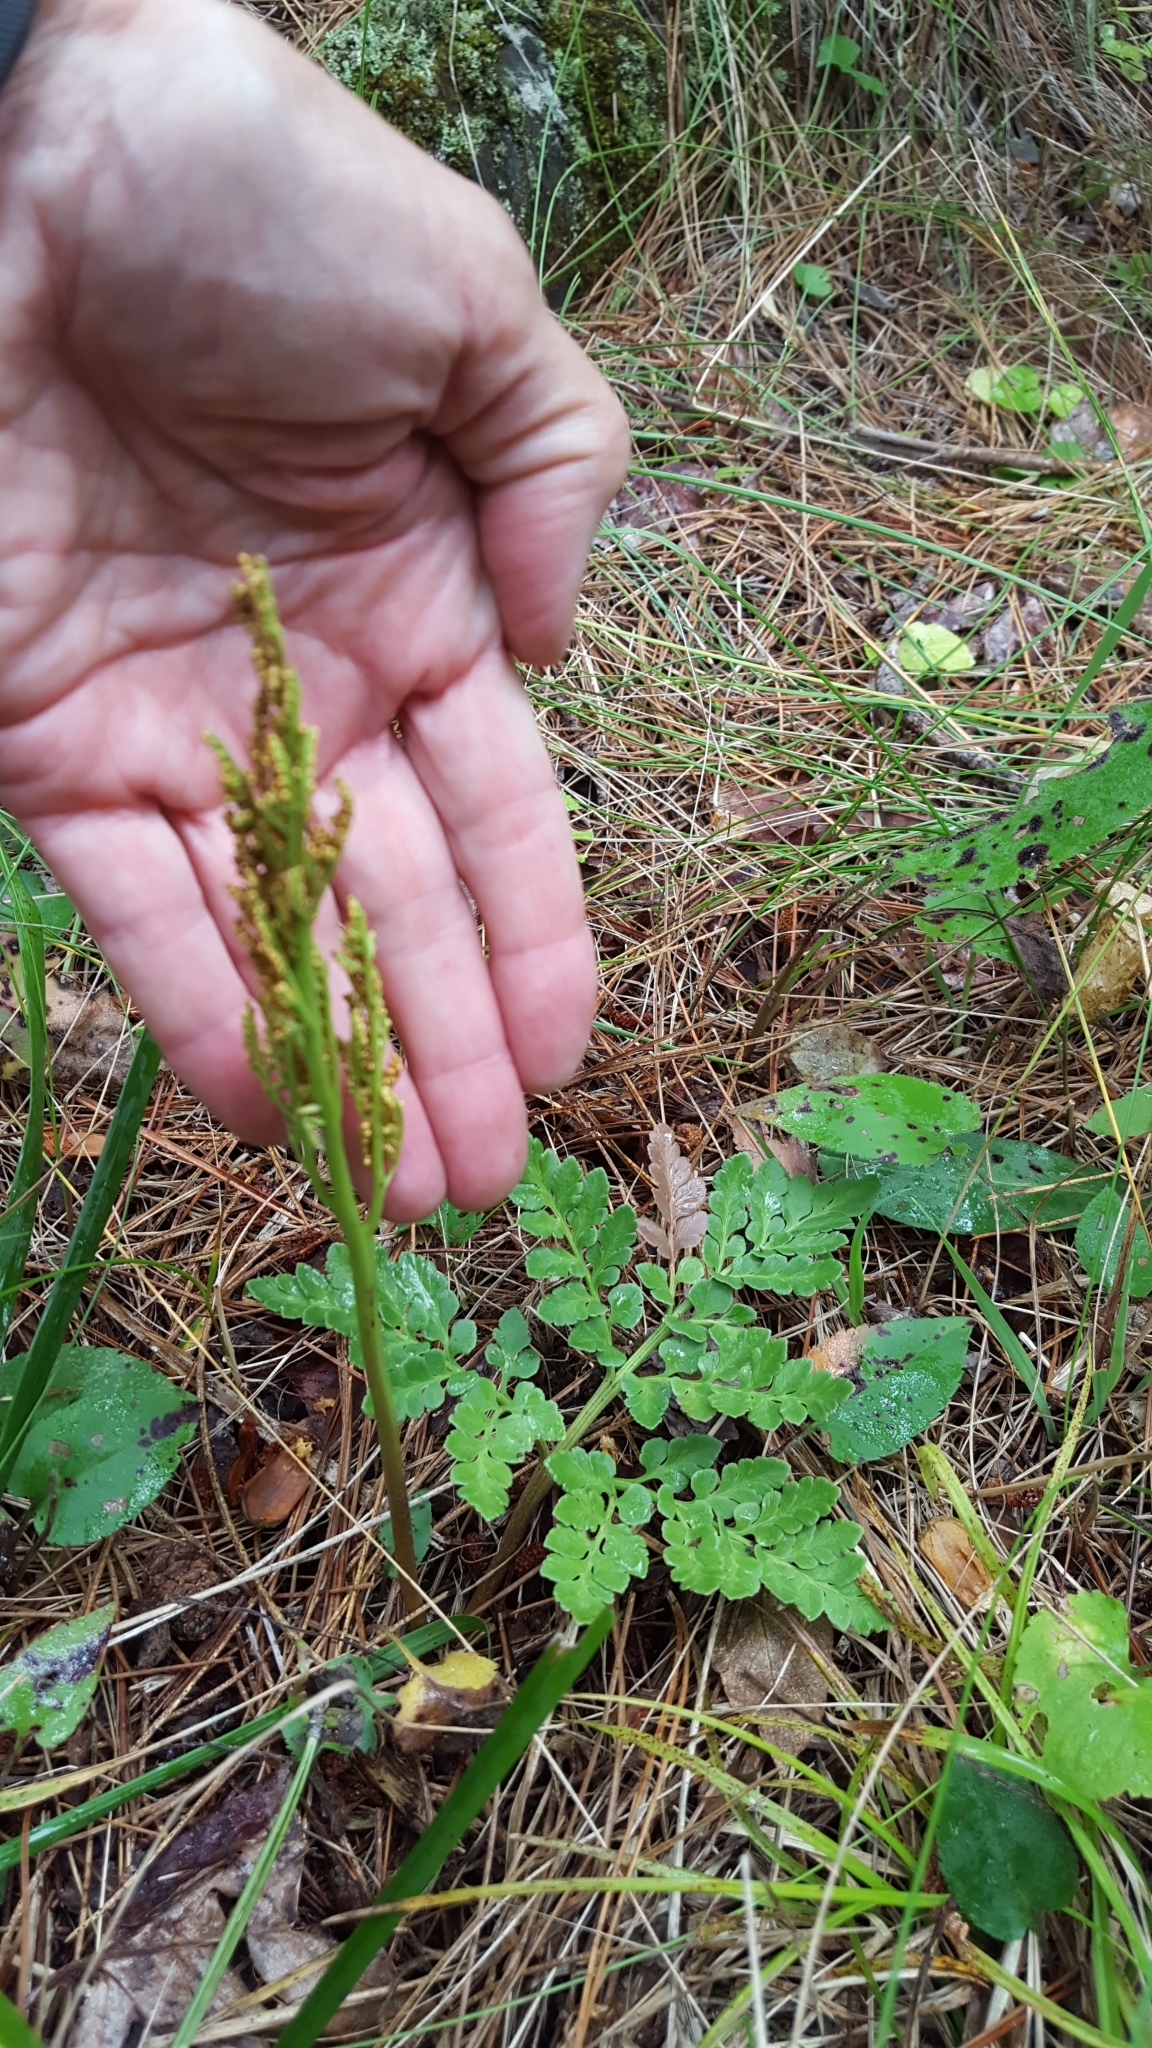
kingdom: Plantae
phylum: Tracheophyta
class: Polypodiopsida
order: Ophioglossales
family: Ophioglossaceae
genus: Sceptridium
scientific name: Sceptridium multifidum
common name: Leathery grape fern
